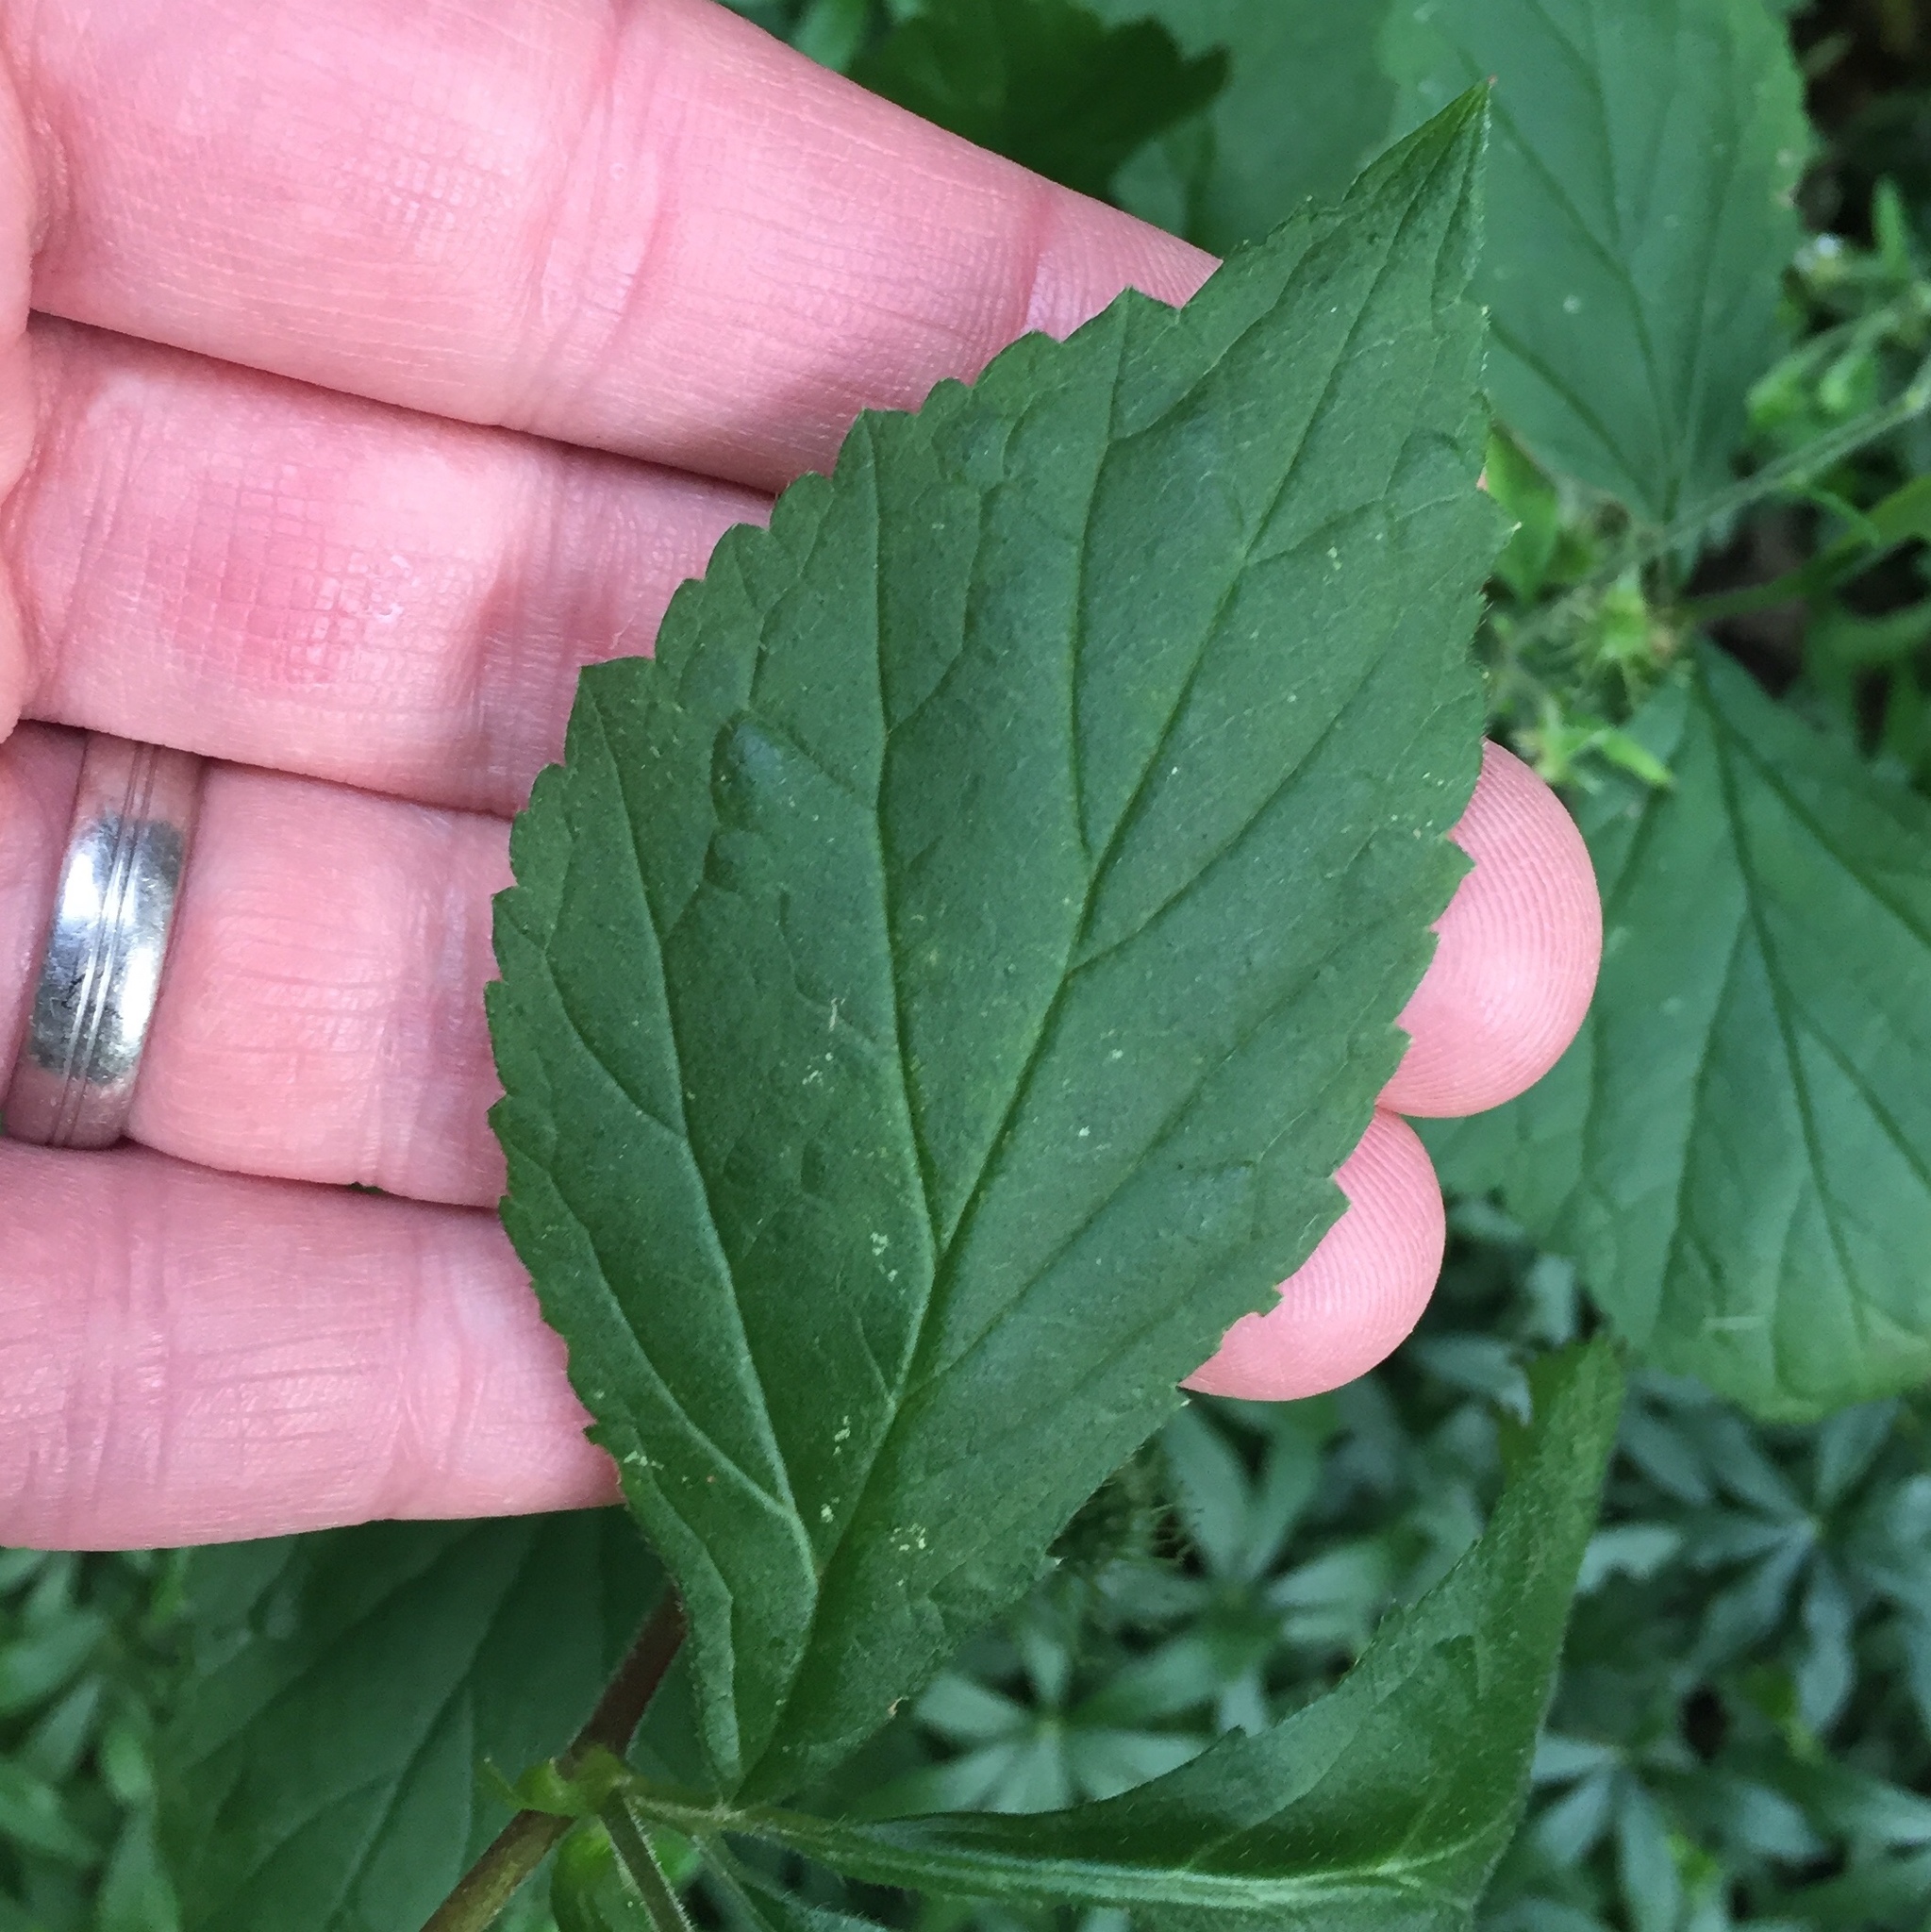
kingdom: Plantae
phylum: Tracheophyta
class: Magnoliopsida
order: Rosales
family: Rosaceae
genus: Geum
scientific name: Geum canadense
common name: White avens
